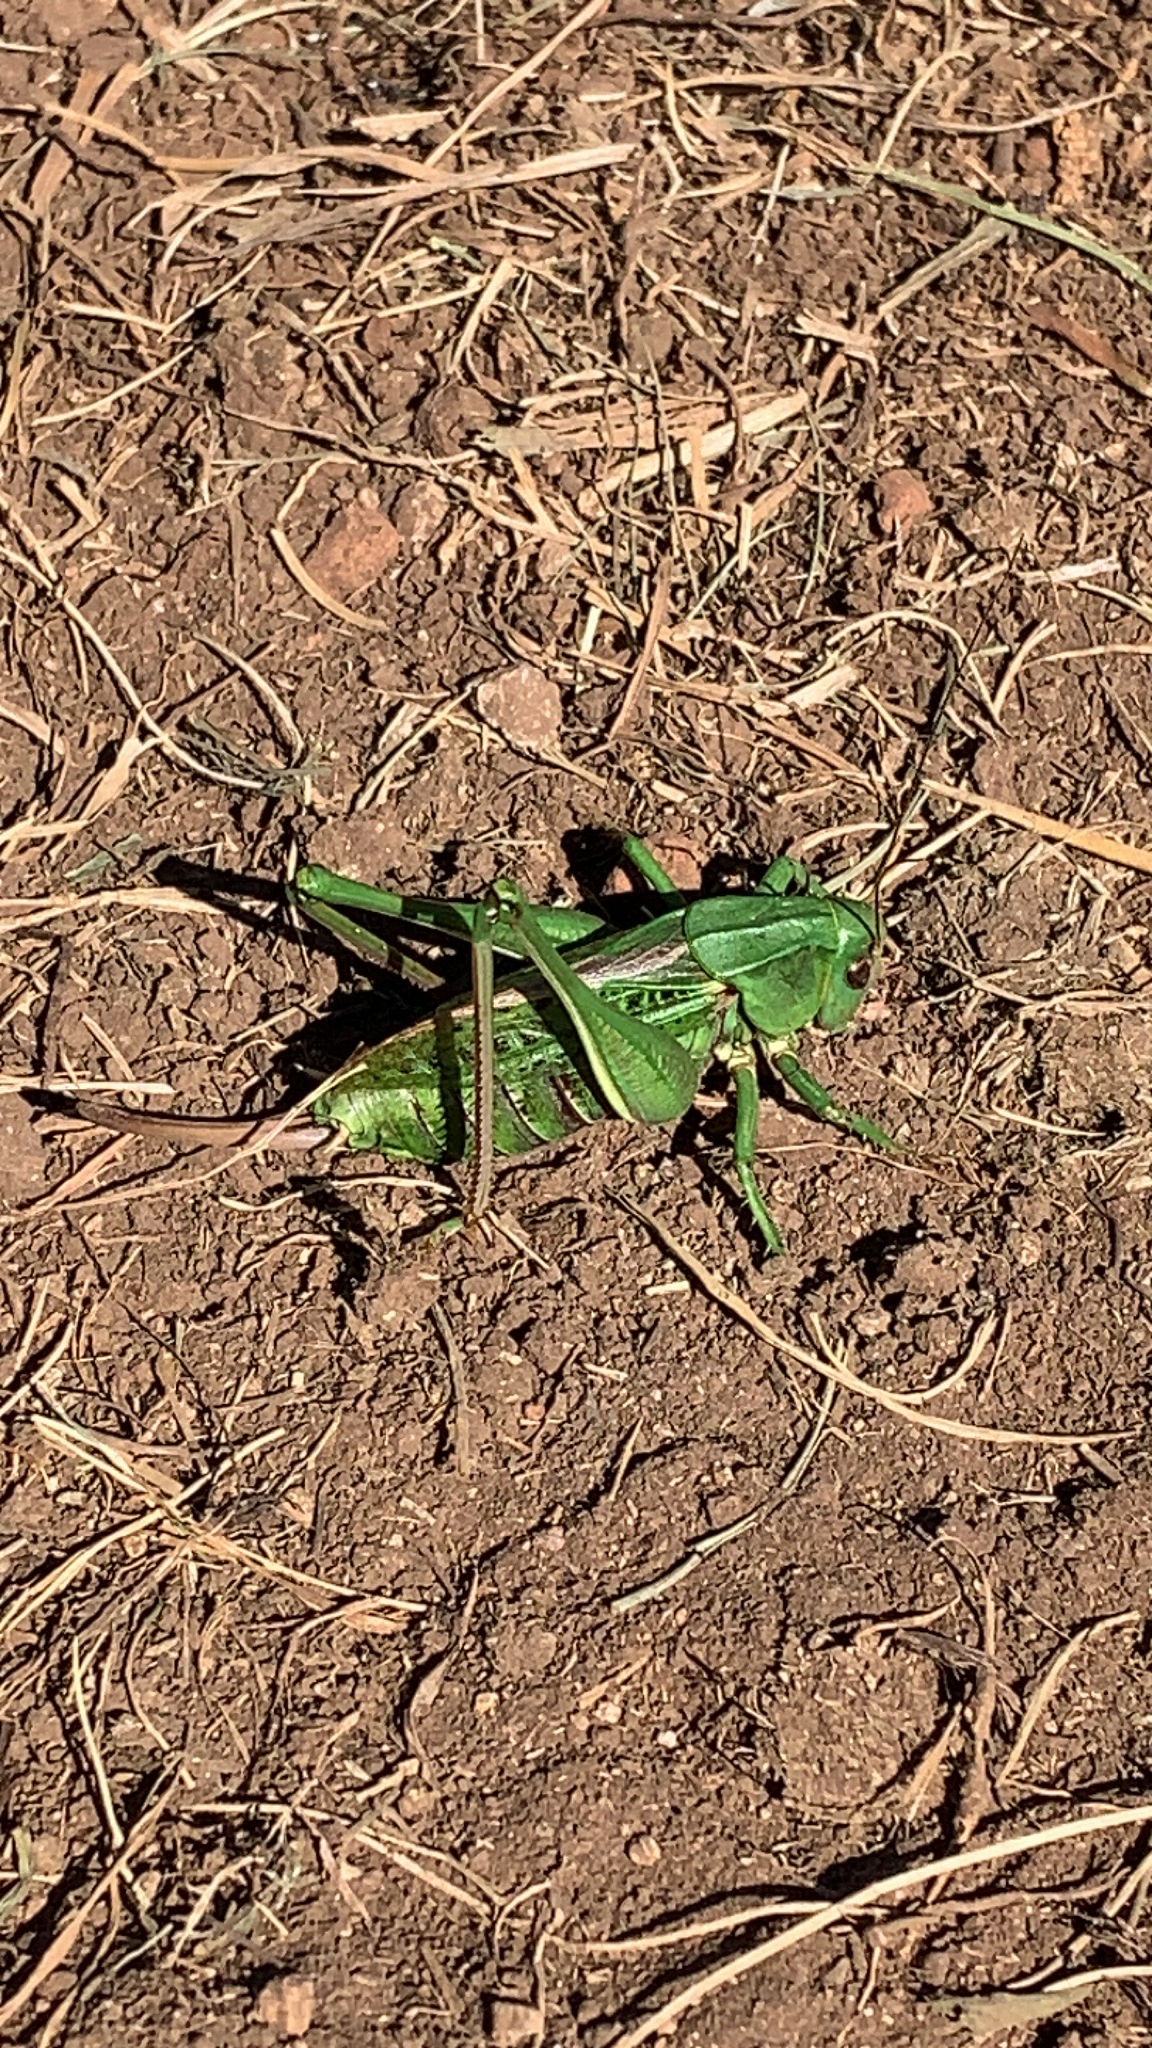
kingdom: Animalia
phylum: Arthropoda
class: Insecta
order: Orthoptera
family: Tettigoniidae
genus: Decticus
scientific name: Decticus verrucivorus
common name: Wart-biter
